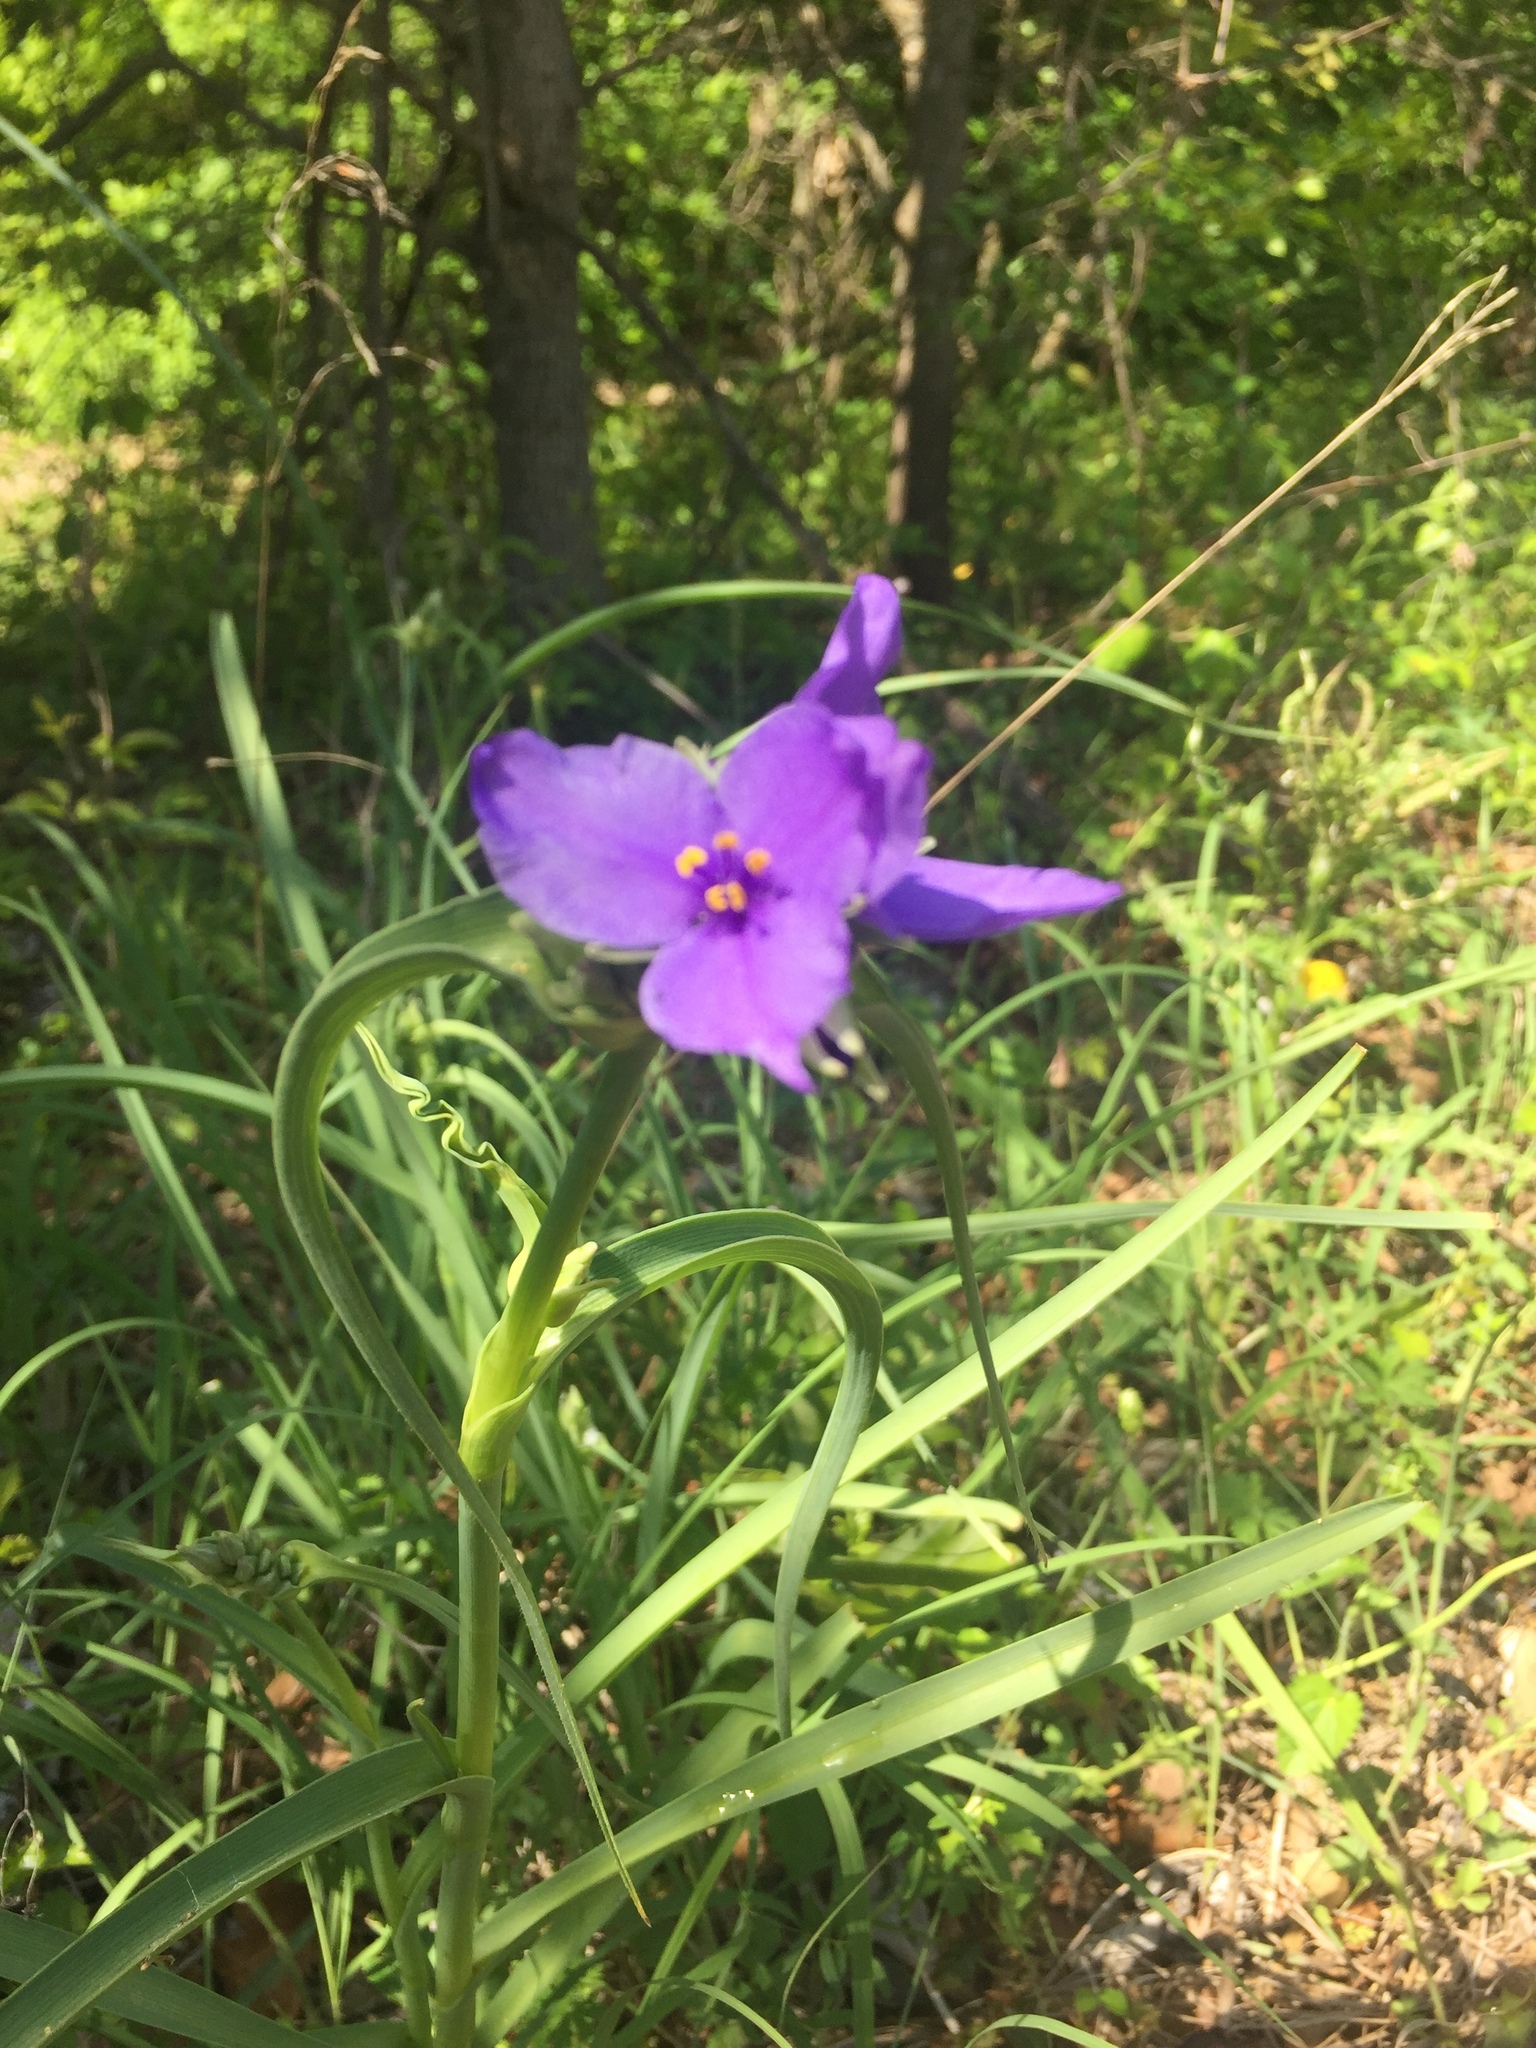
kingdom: Plantae
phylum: Tracheophyta
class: Liliopsida
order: Commelinales
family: Commelinaceae
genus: Tradescantia
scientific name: Tradescantia ohiensis
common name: Ohio spiderwort
